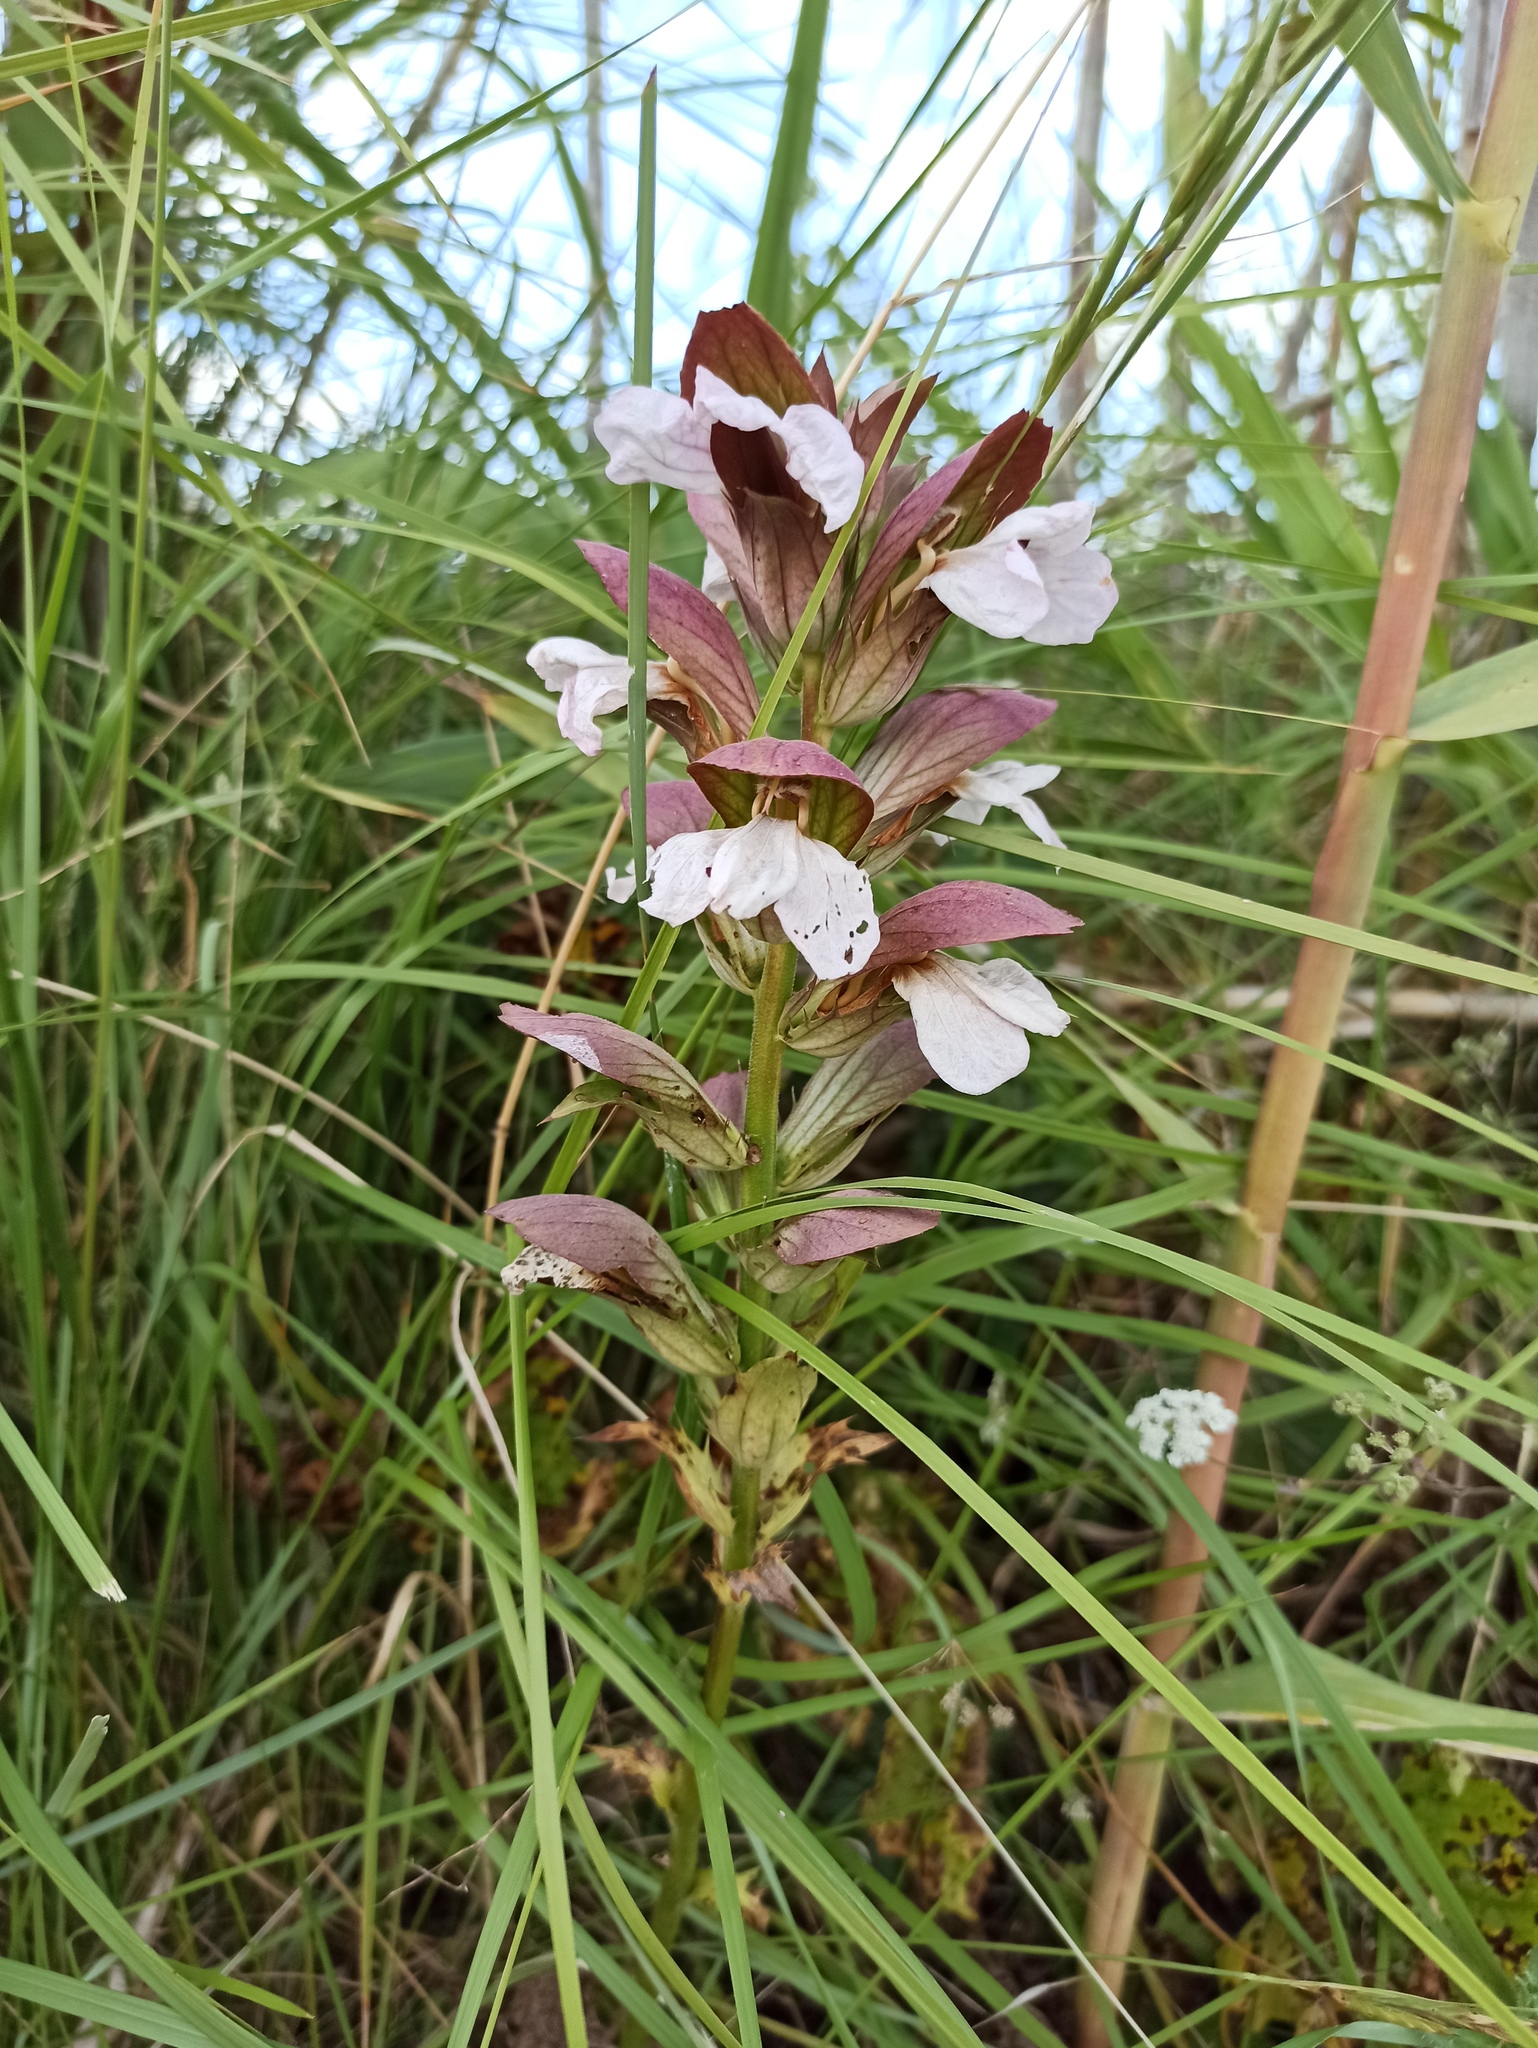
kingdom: Plantae
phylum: Tracheophyta
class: Magnoliopsida
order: Lamiales
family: Acanthaceae
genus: Acanthus
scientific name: Acanthus mollis
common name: Bear's-breech
